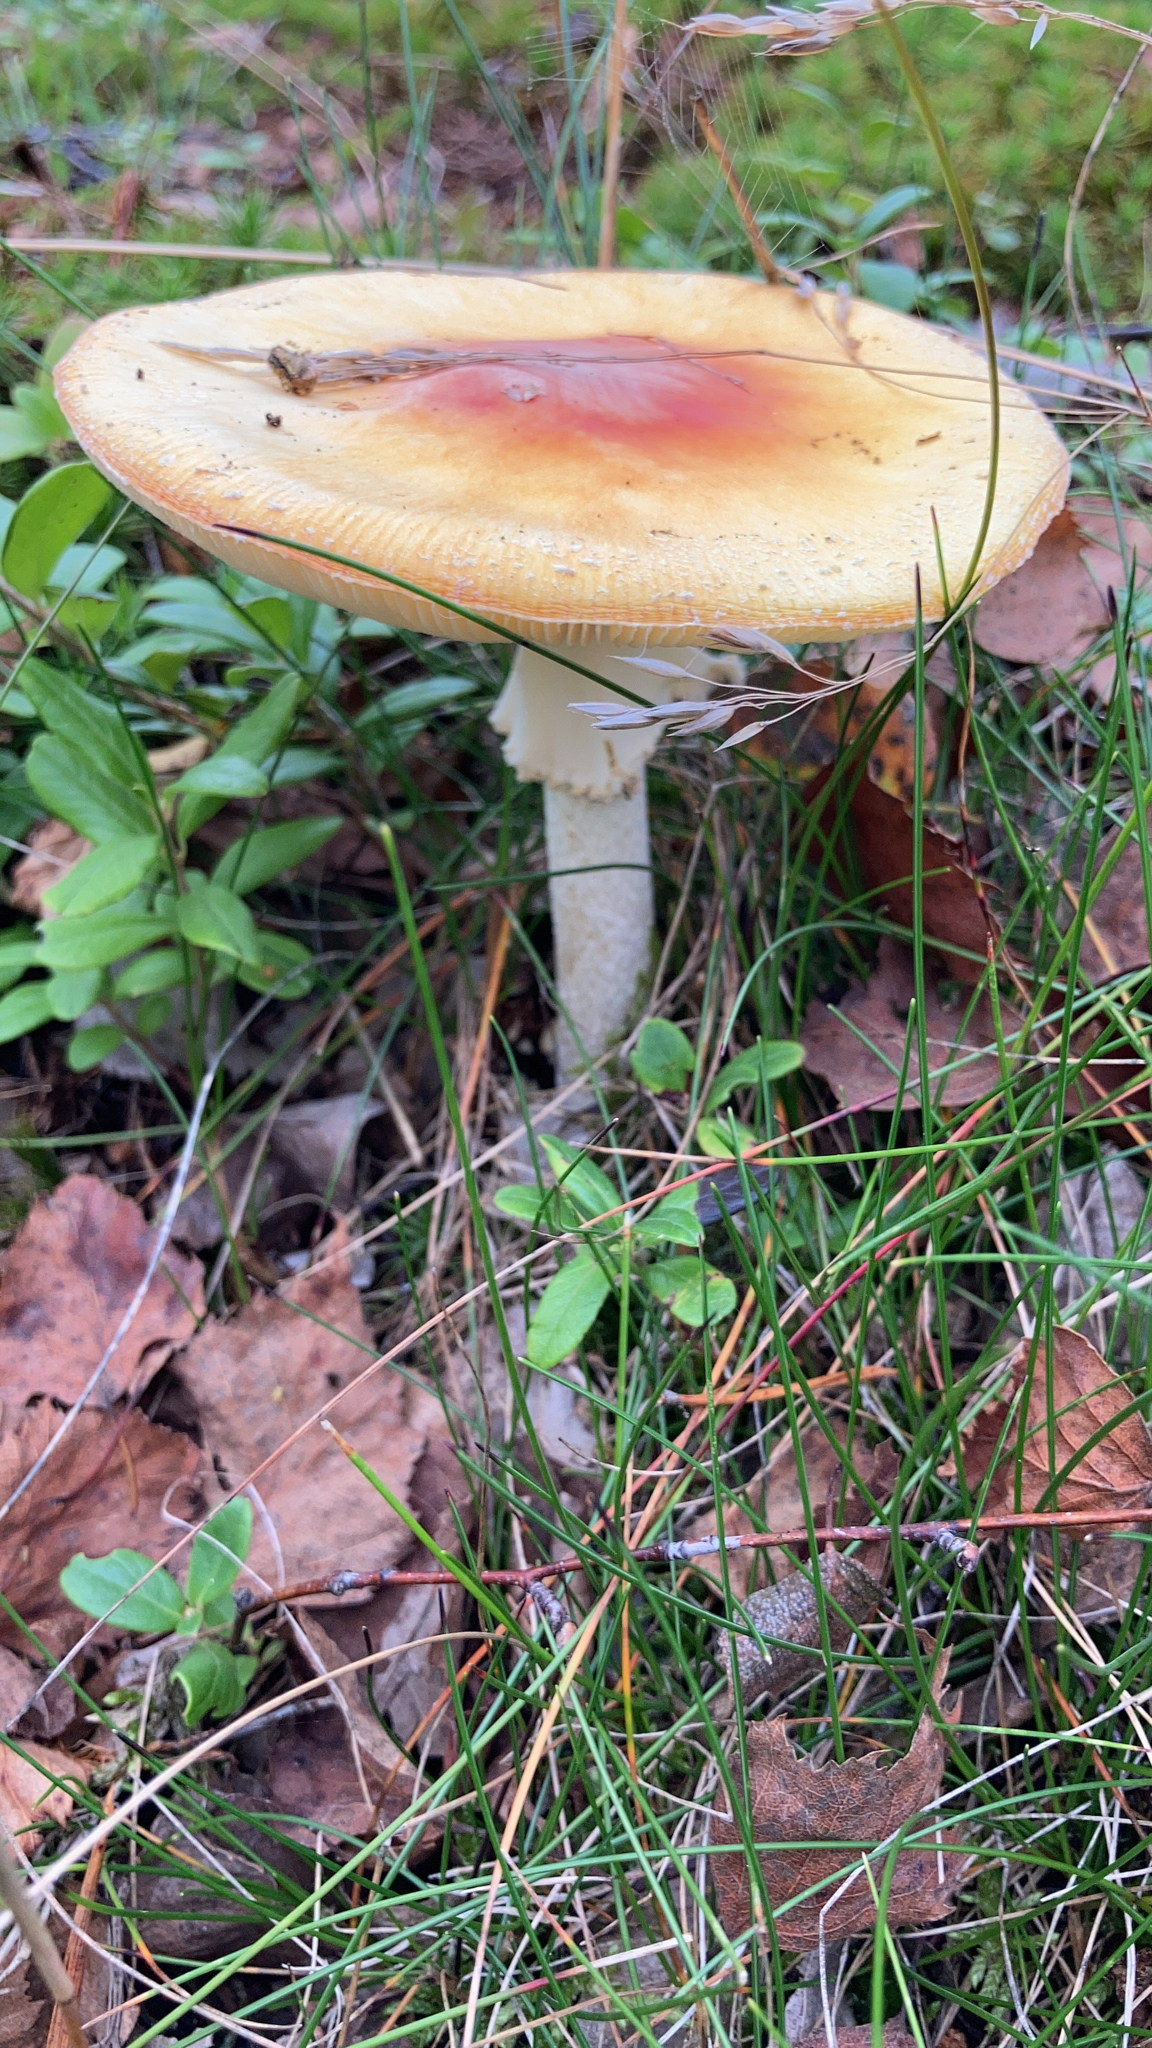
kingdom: Fungi
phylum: Basidiomycota
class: Agaricomycetes
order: Agaricales
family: Amanitaceae
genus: Amanita
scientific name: Amanita muscaria
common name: Fly agaric
